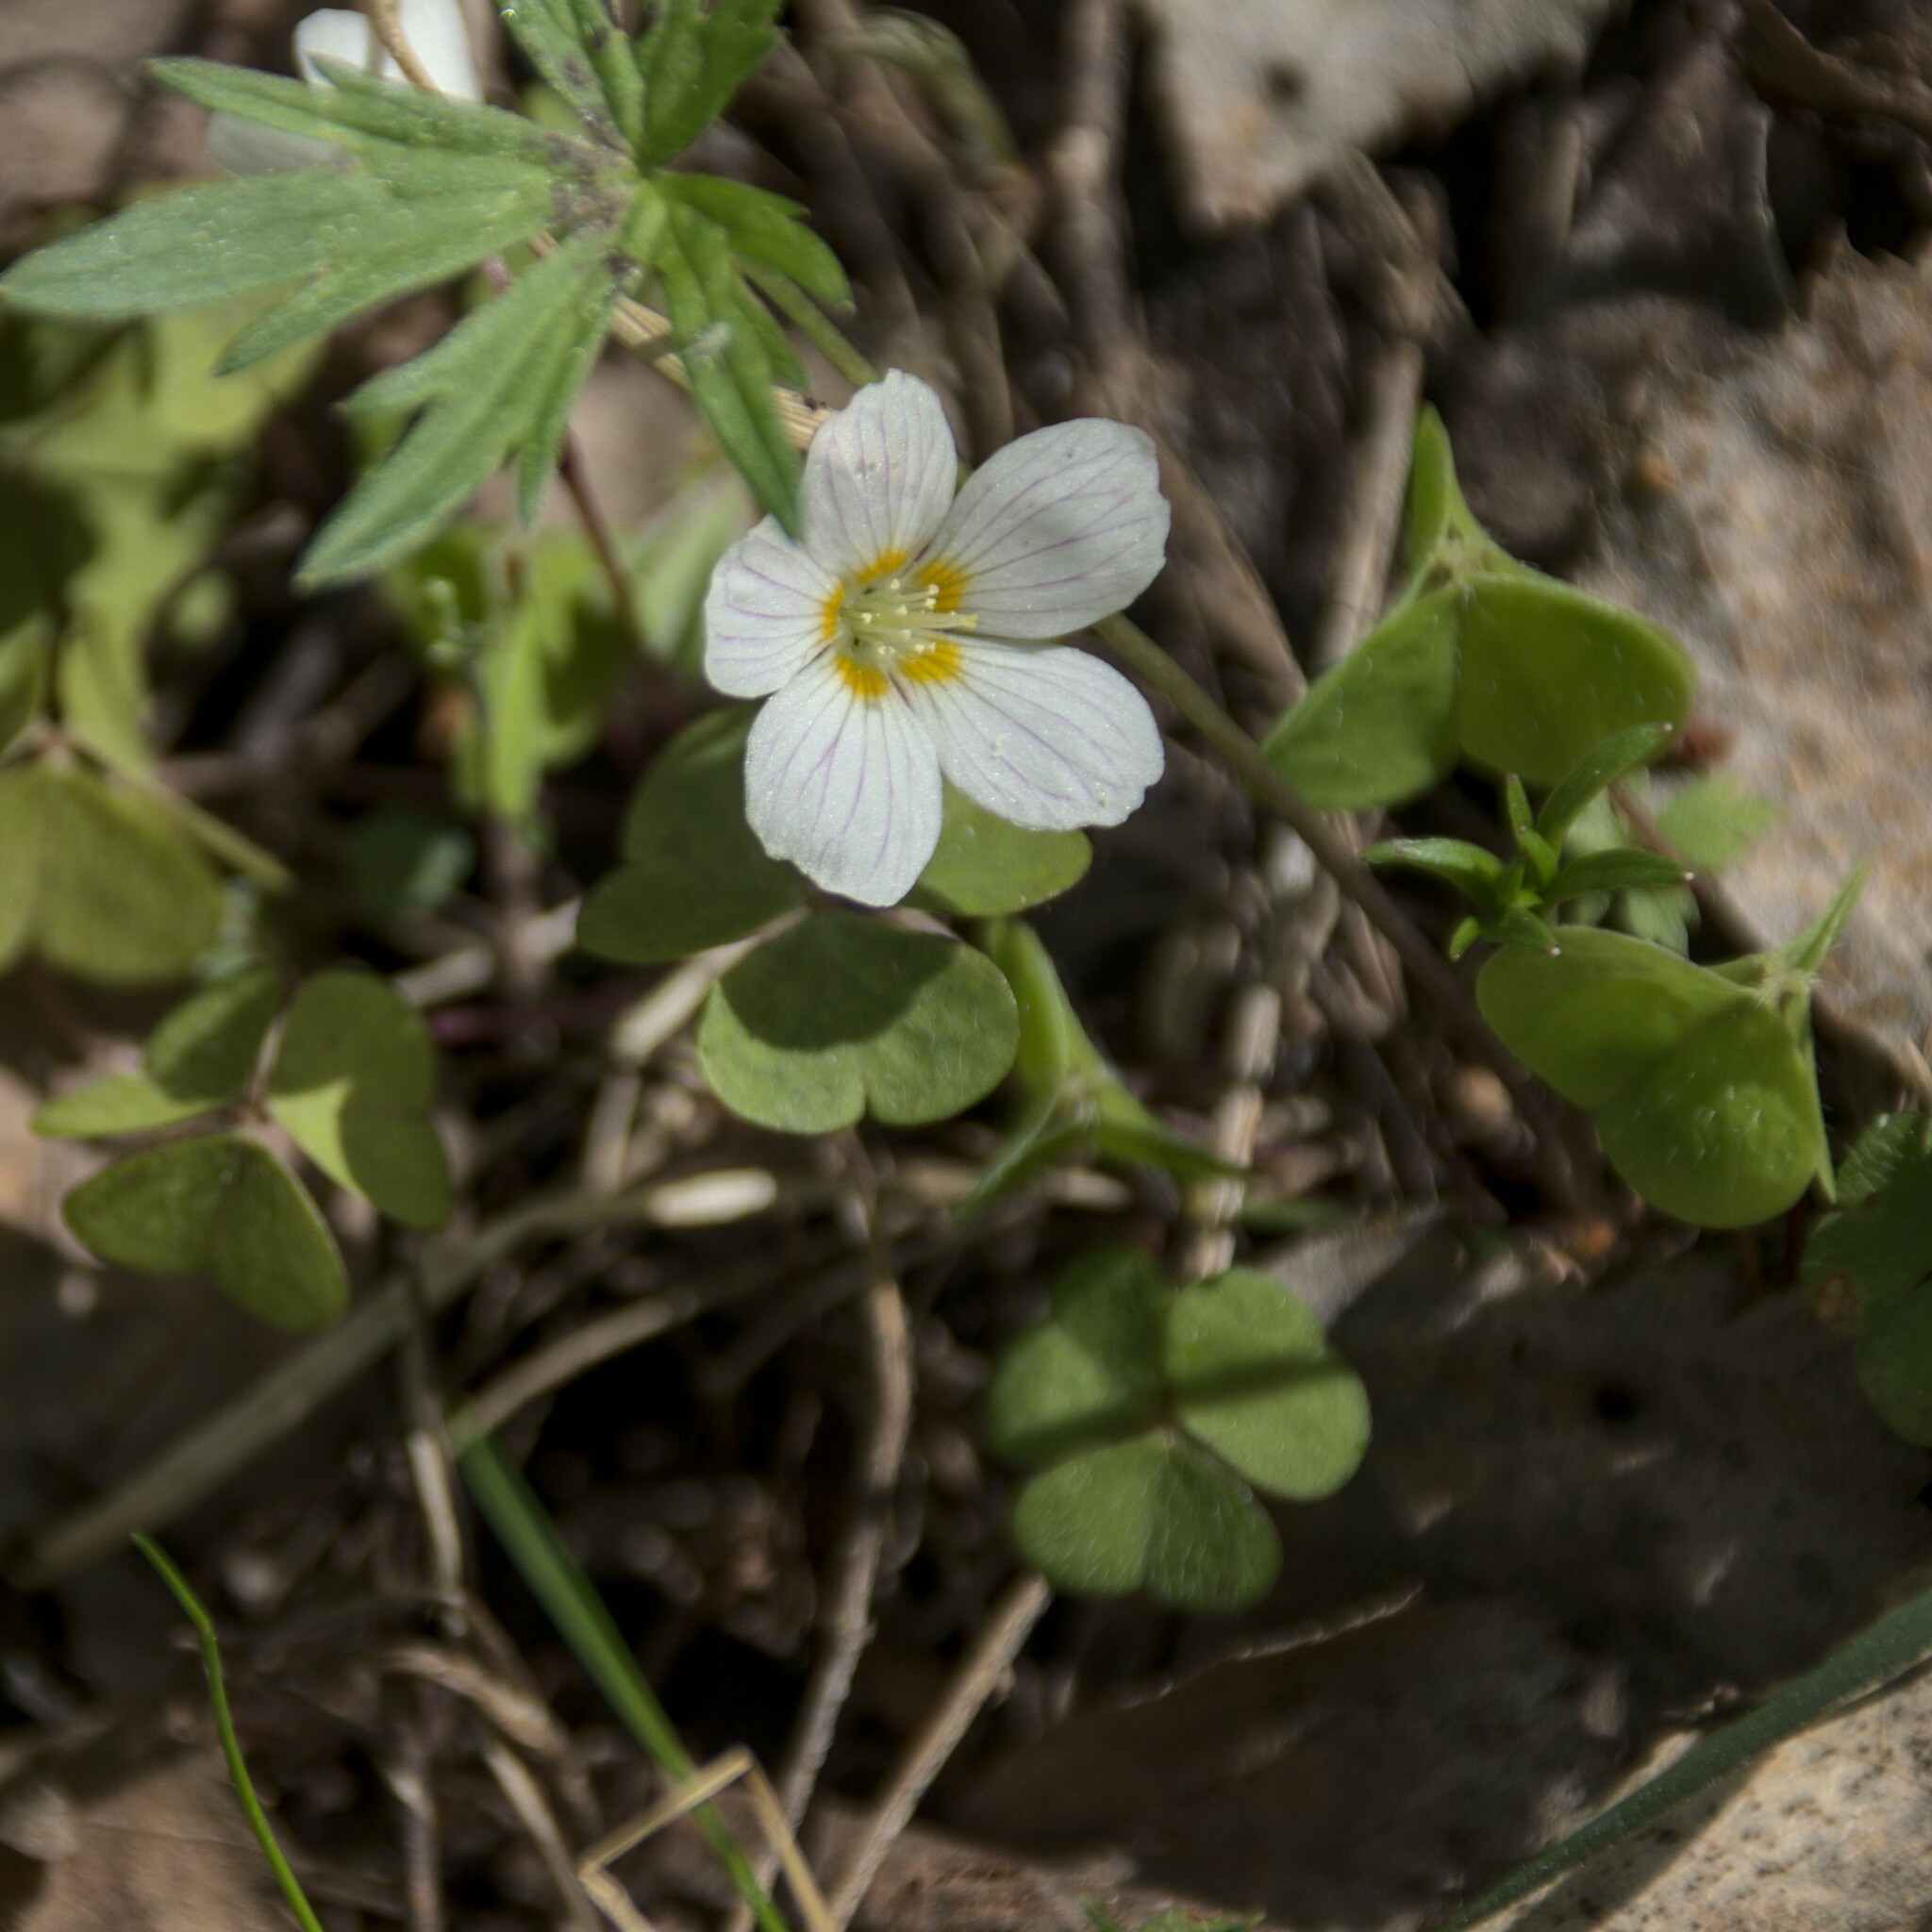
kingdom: Plantae
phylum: Tracheophyta
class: Magnoliopsida
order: Oxalidales
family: Oxalidaceae
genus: Oxalis
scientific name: Oxalis acetosella
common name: Wood-sorrel
